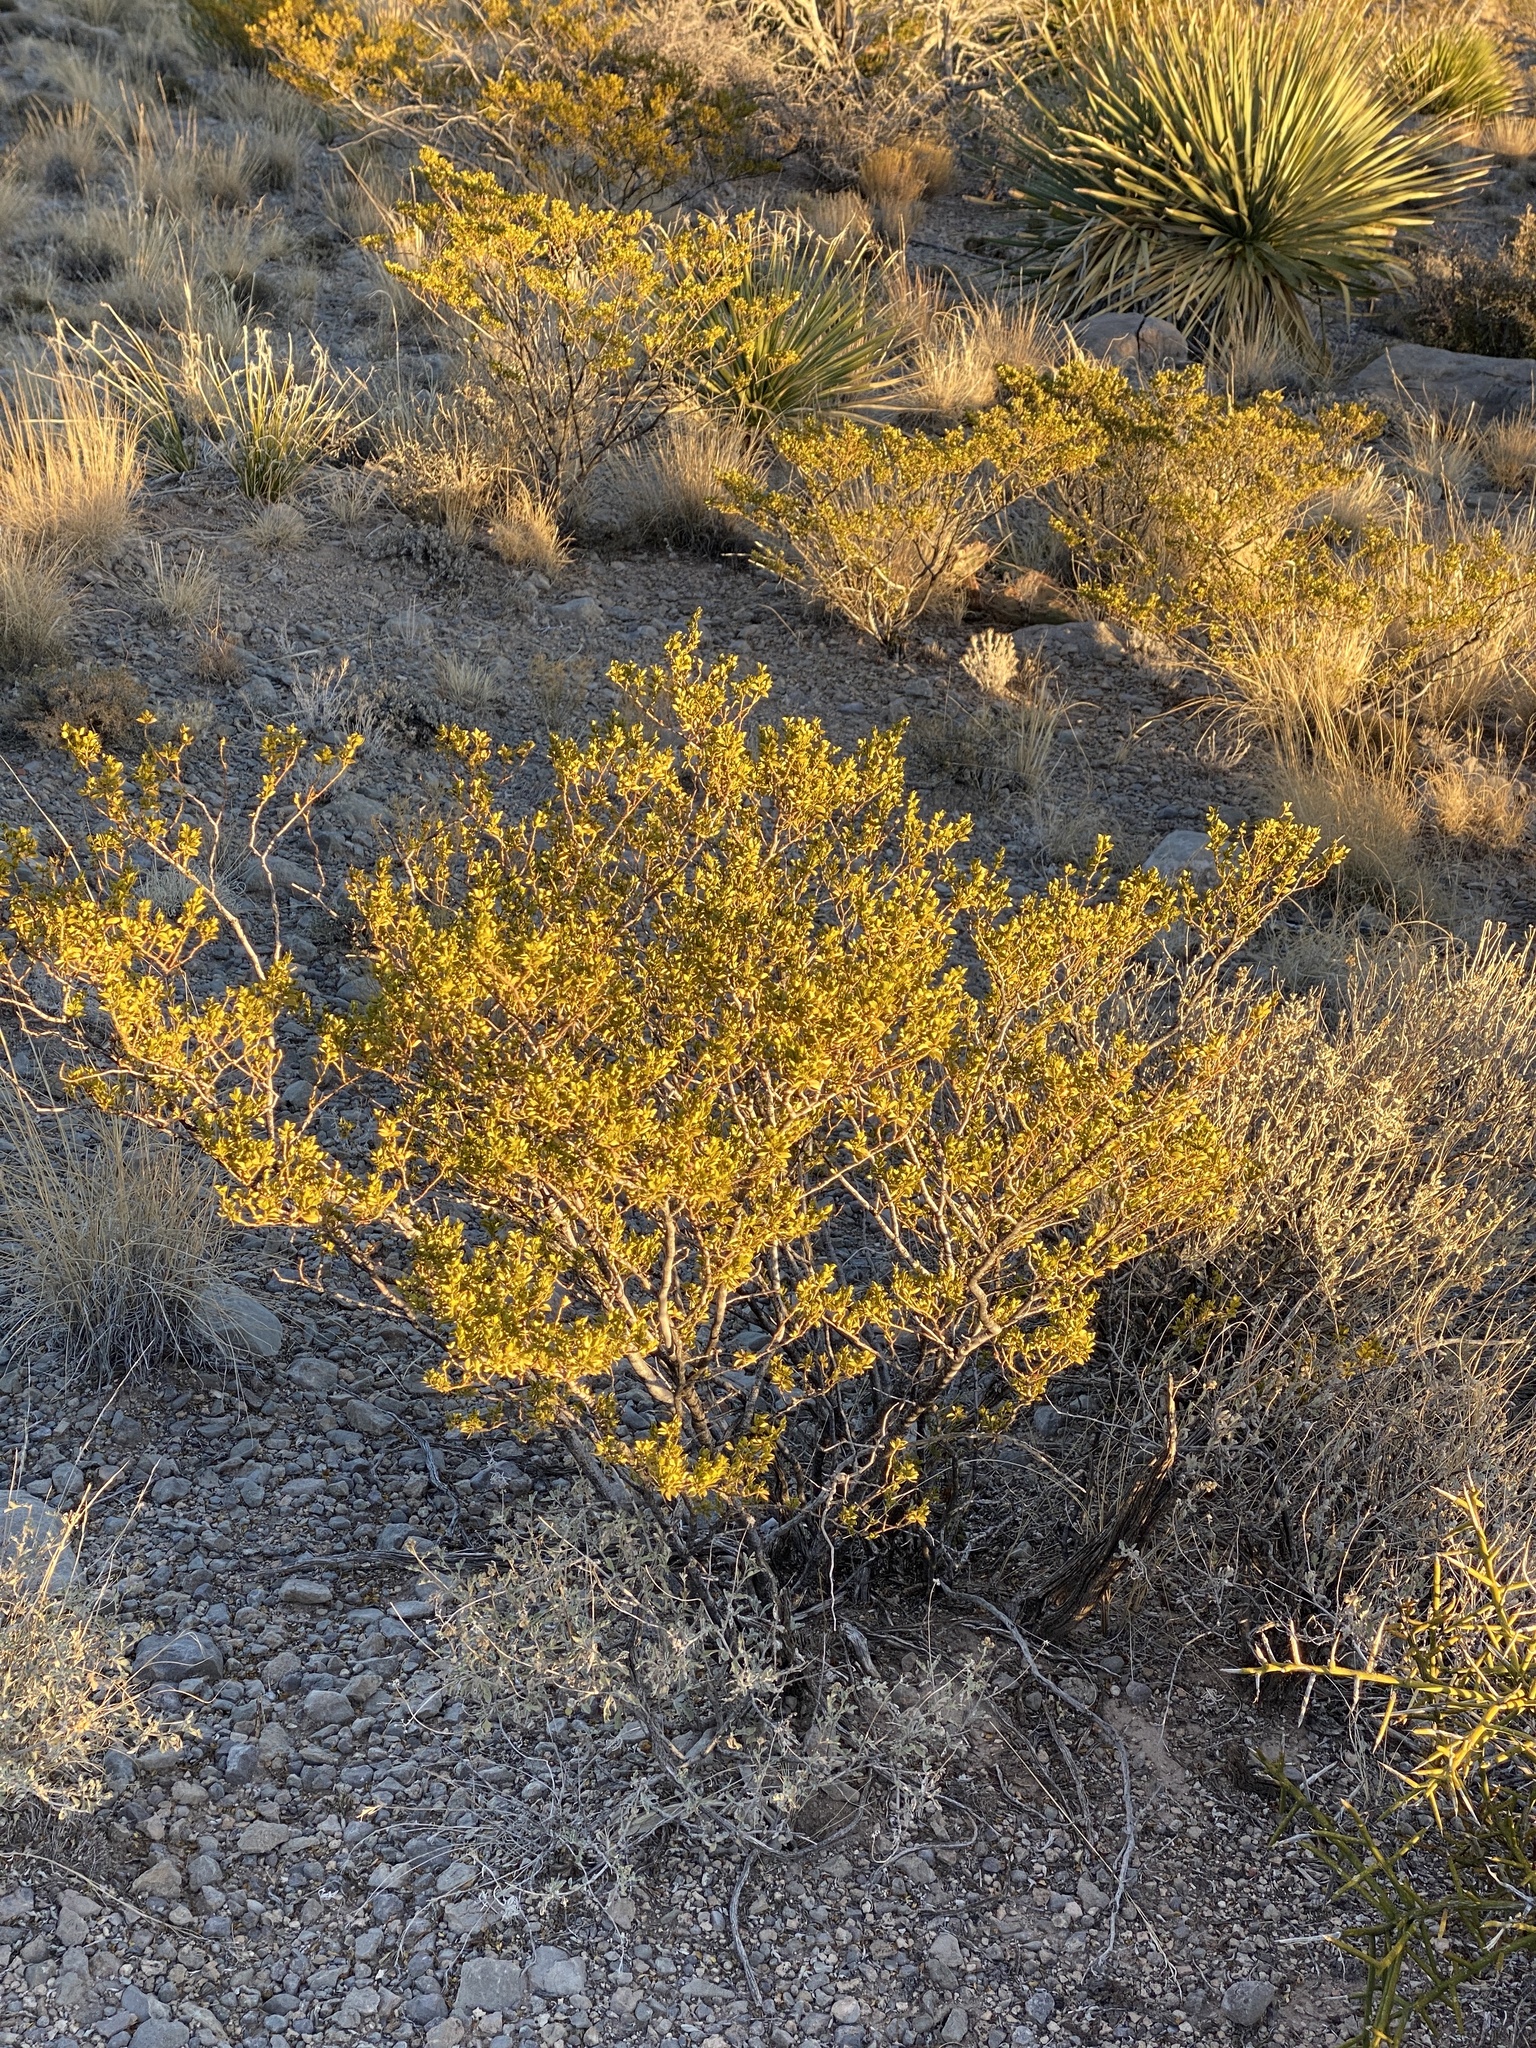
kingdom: Plantae
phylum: Tracheophyta
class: Magnoliopsida
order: Zygophyllales
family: Zygophyllaceae
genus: Larrea
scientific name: Larrea tridentata
